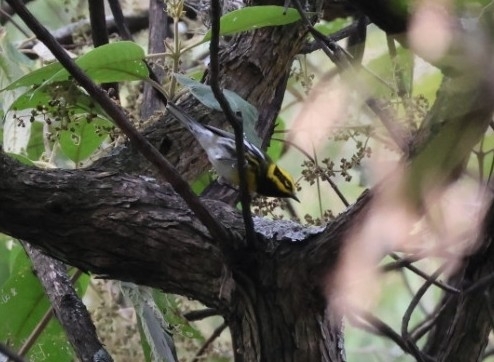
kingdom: Animalia
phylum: Chordata
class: Aves
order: Passeriformes
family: Parulidae
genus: Setophaga
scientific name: Setophaga townsendi
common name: Townsend's warbler
